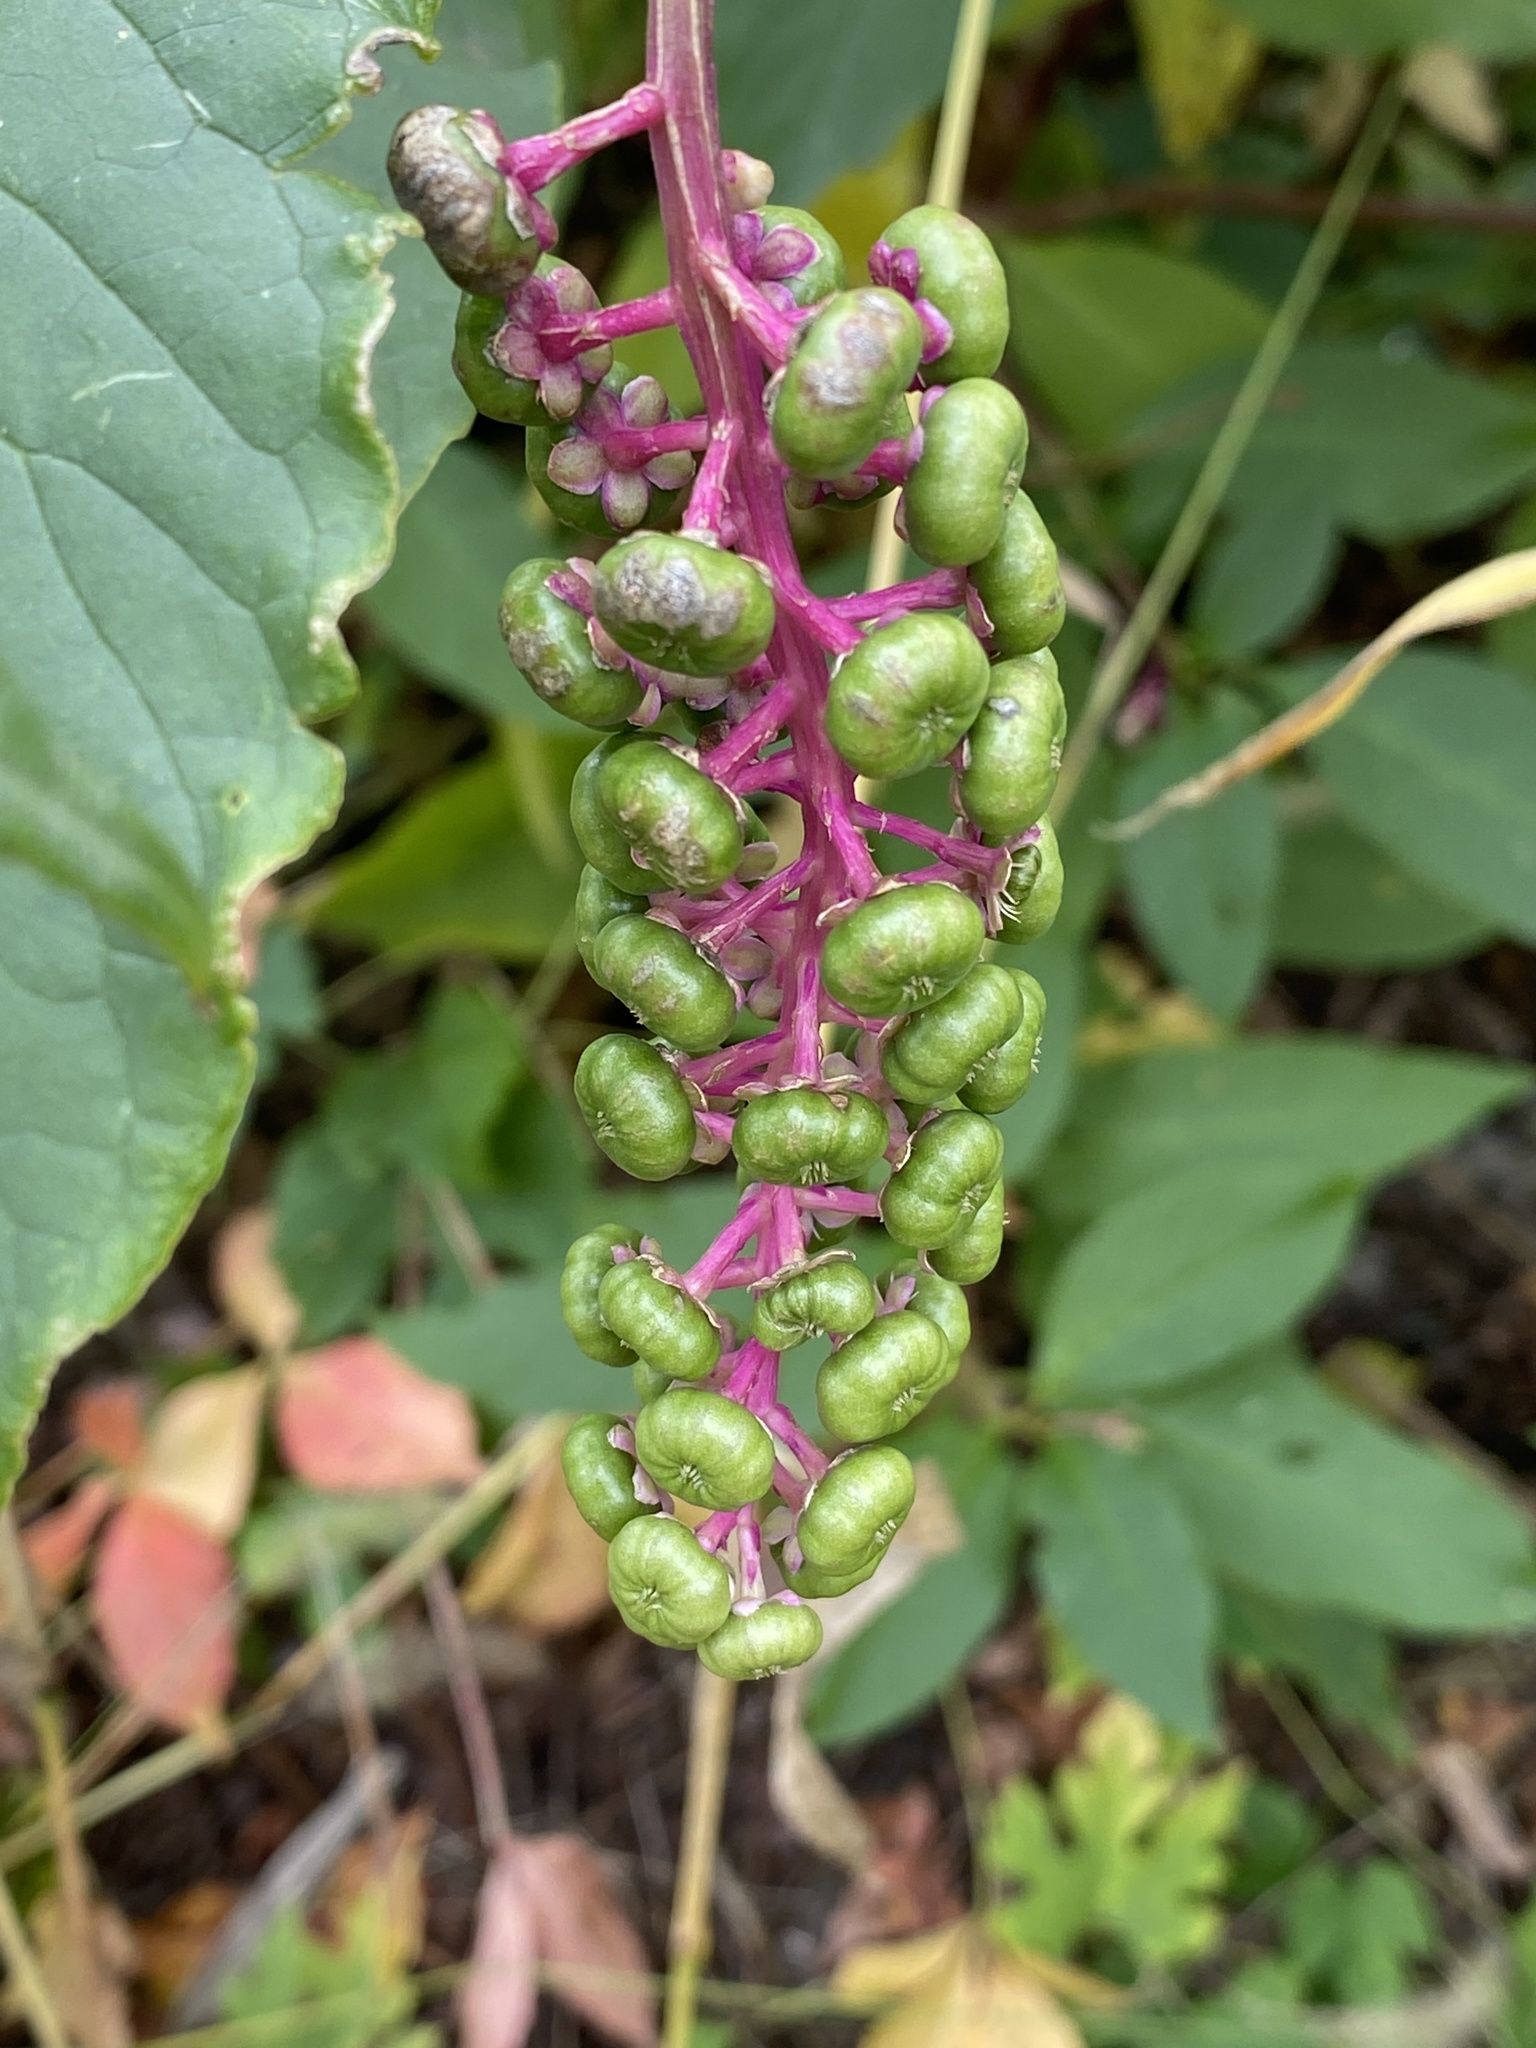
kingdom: Plantae
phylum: Tracheophyta
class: Magnoliopsida
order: Caryophyllales
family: Phytolaccaceae
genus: Phytolacca
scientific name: Phytolacca americana
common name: American pokeweed
